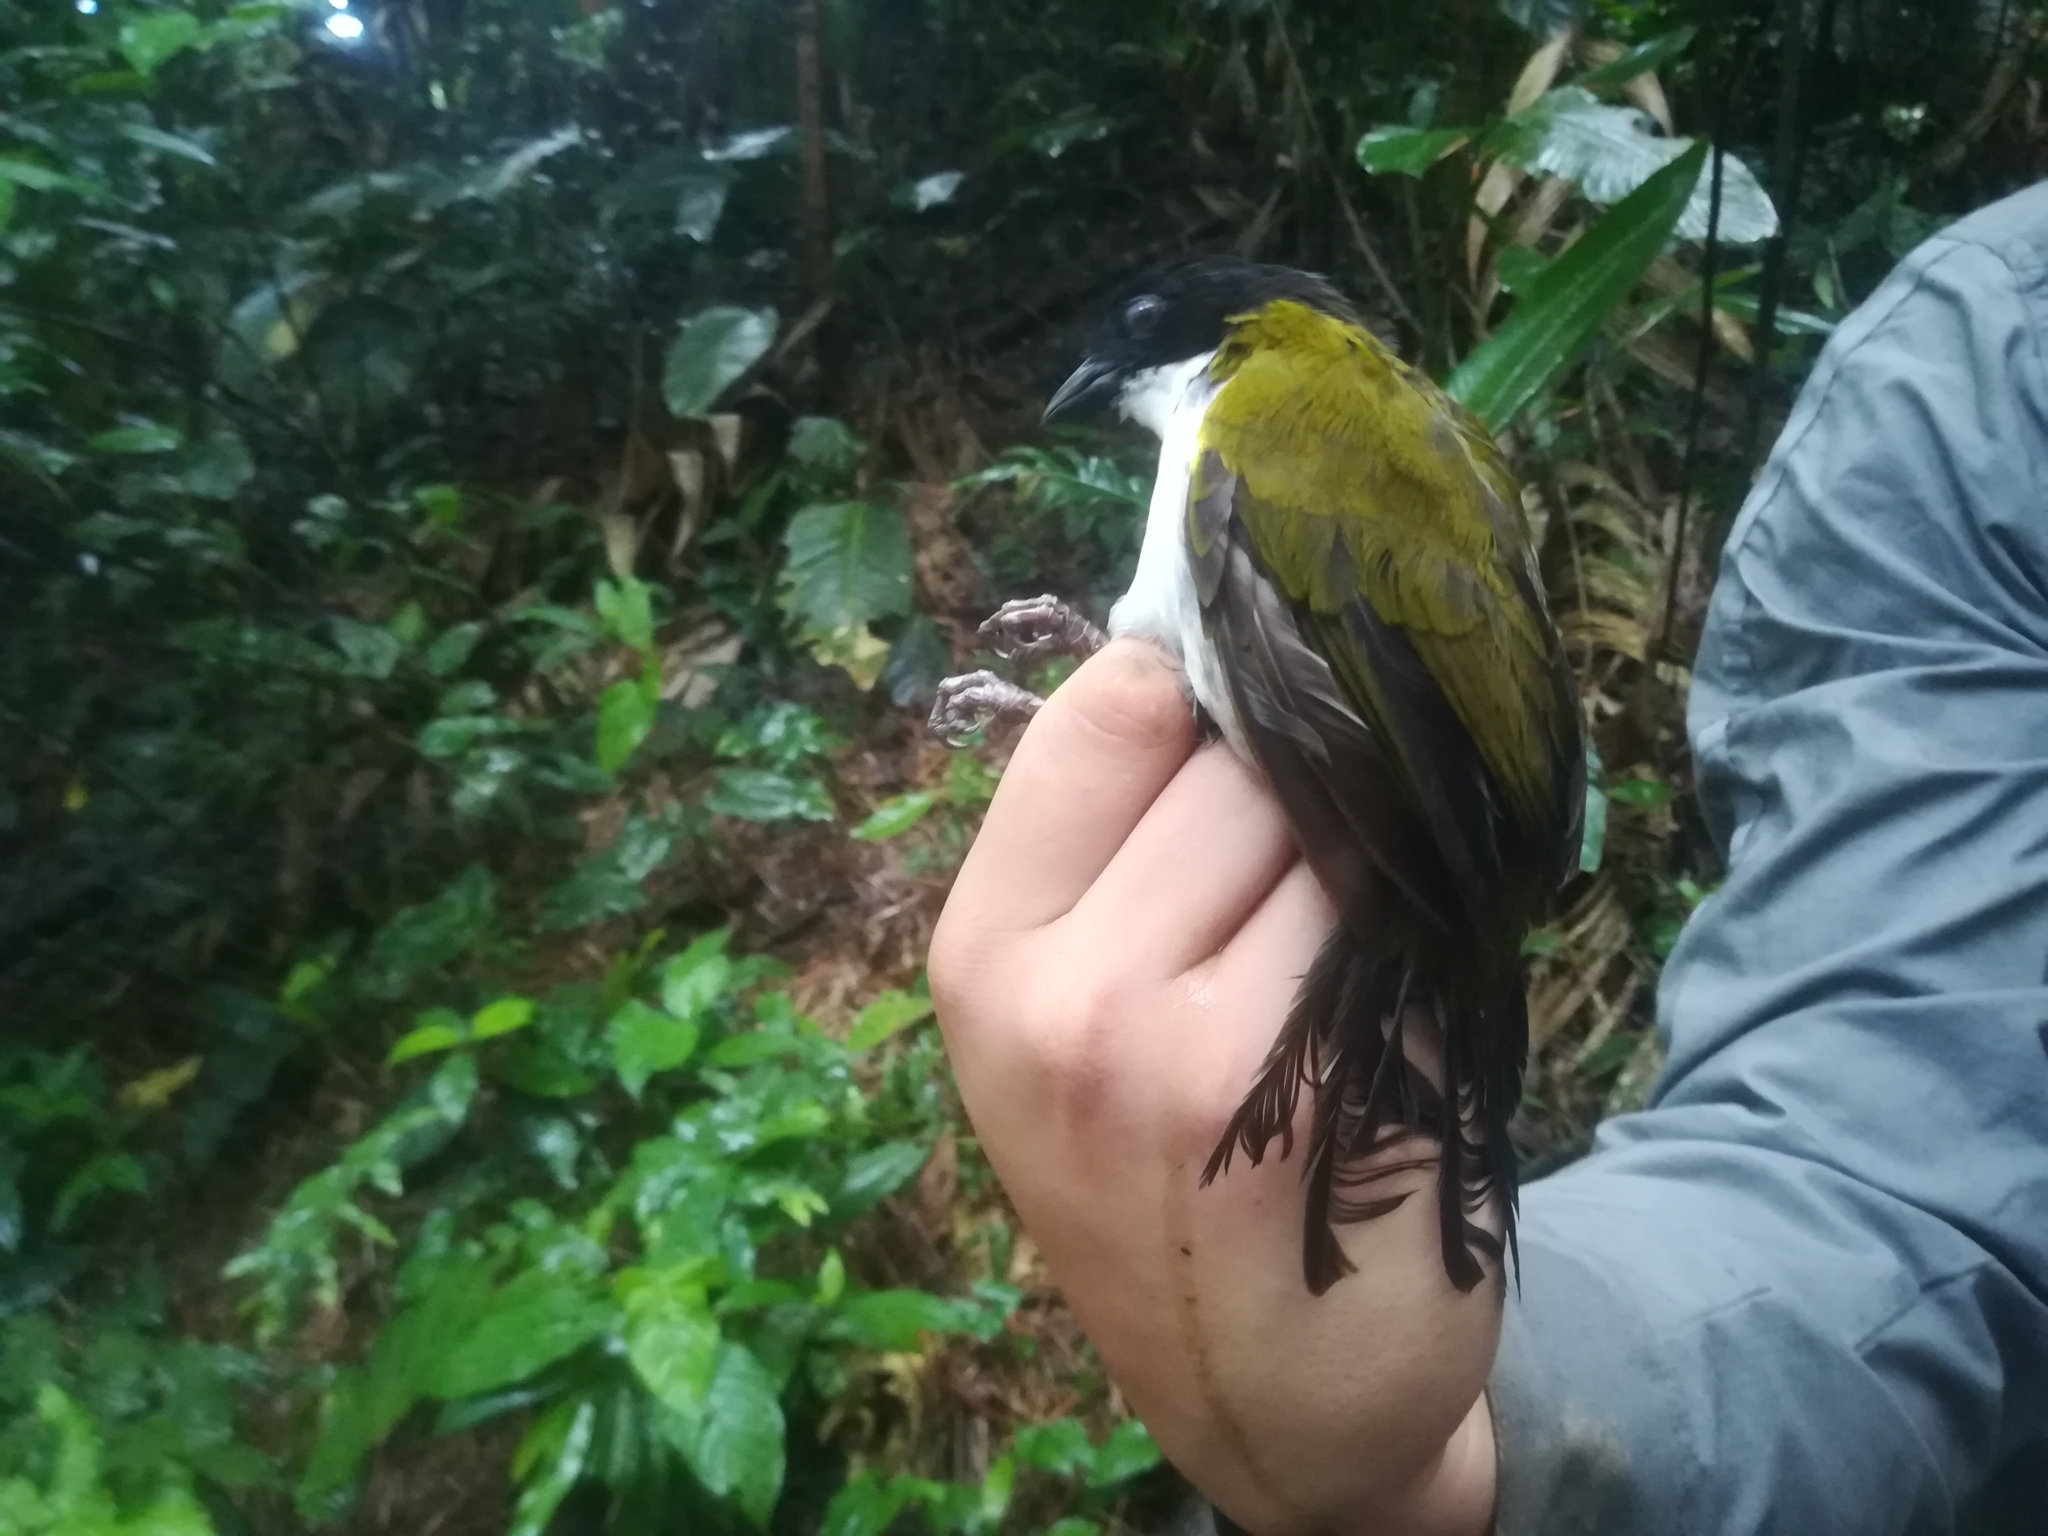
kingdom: Animalia
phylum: Chordata
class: Aves
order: Passeriformes
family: Passerellidae
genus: Arremon
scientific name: Arremon atricapillus
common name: Black-headed brushfinch
